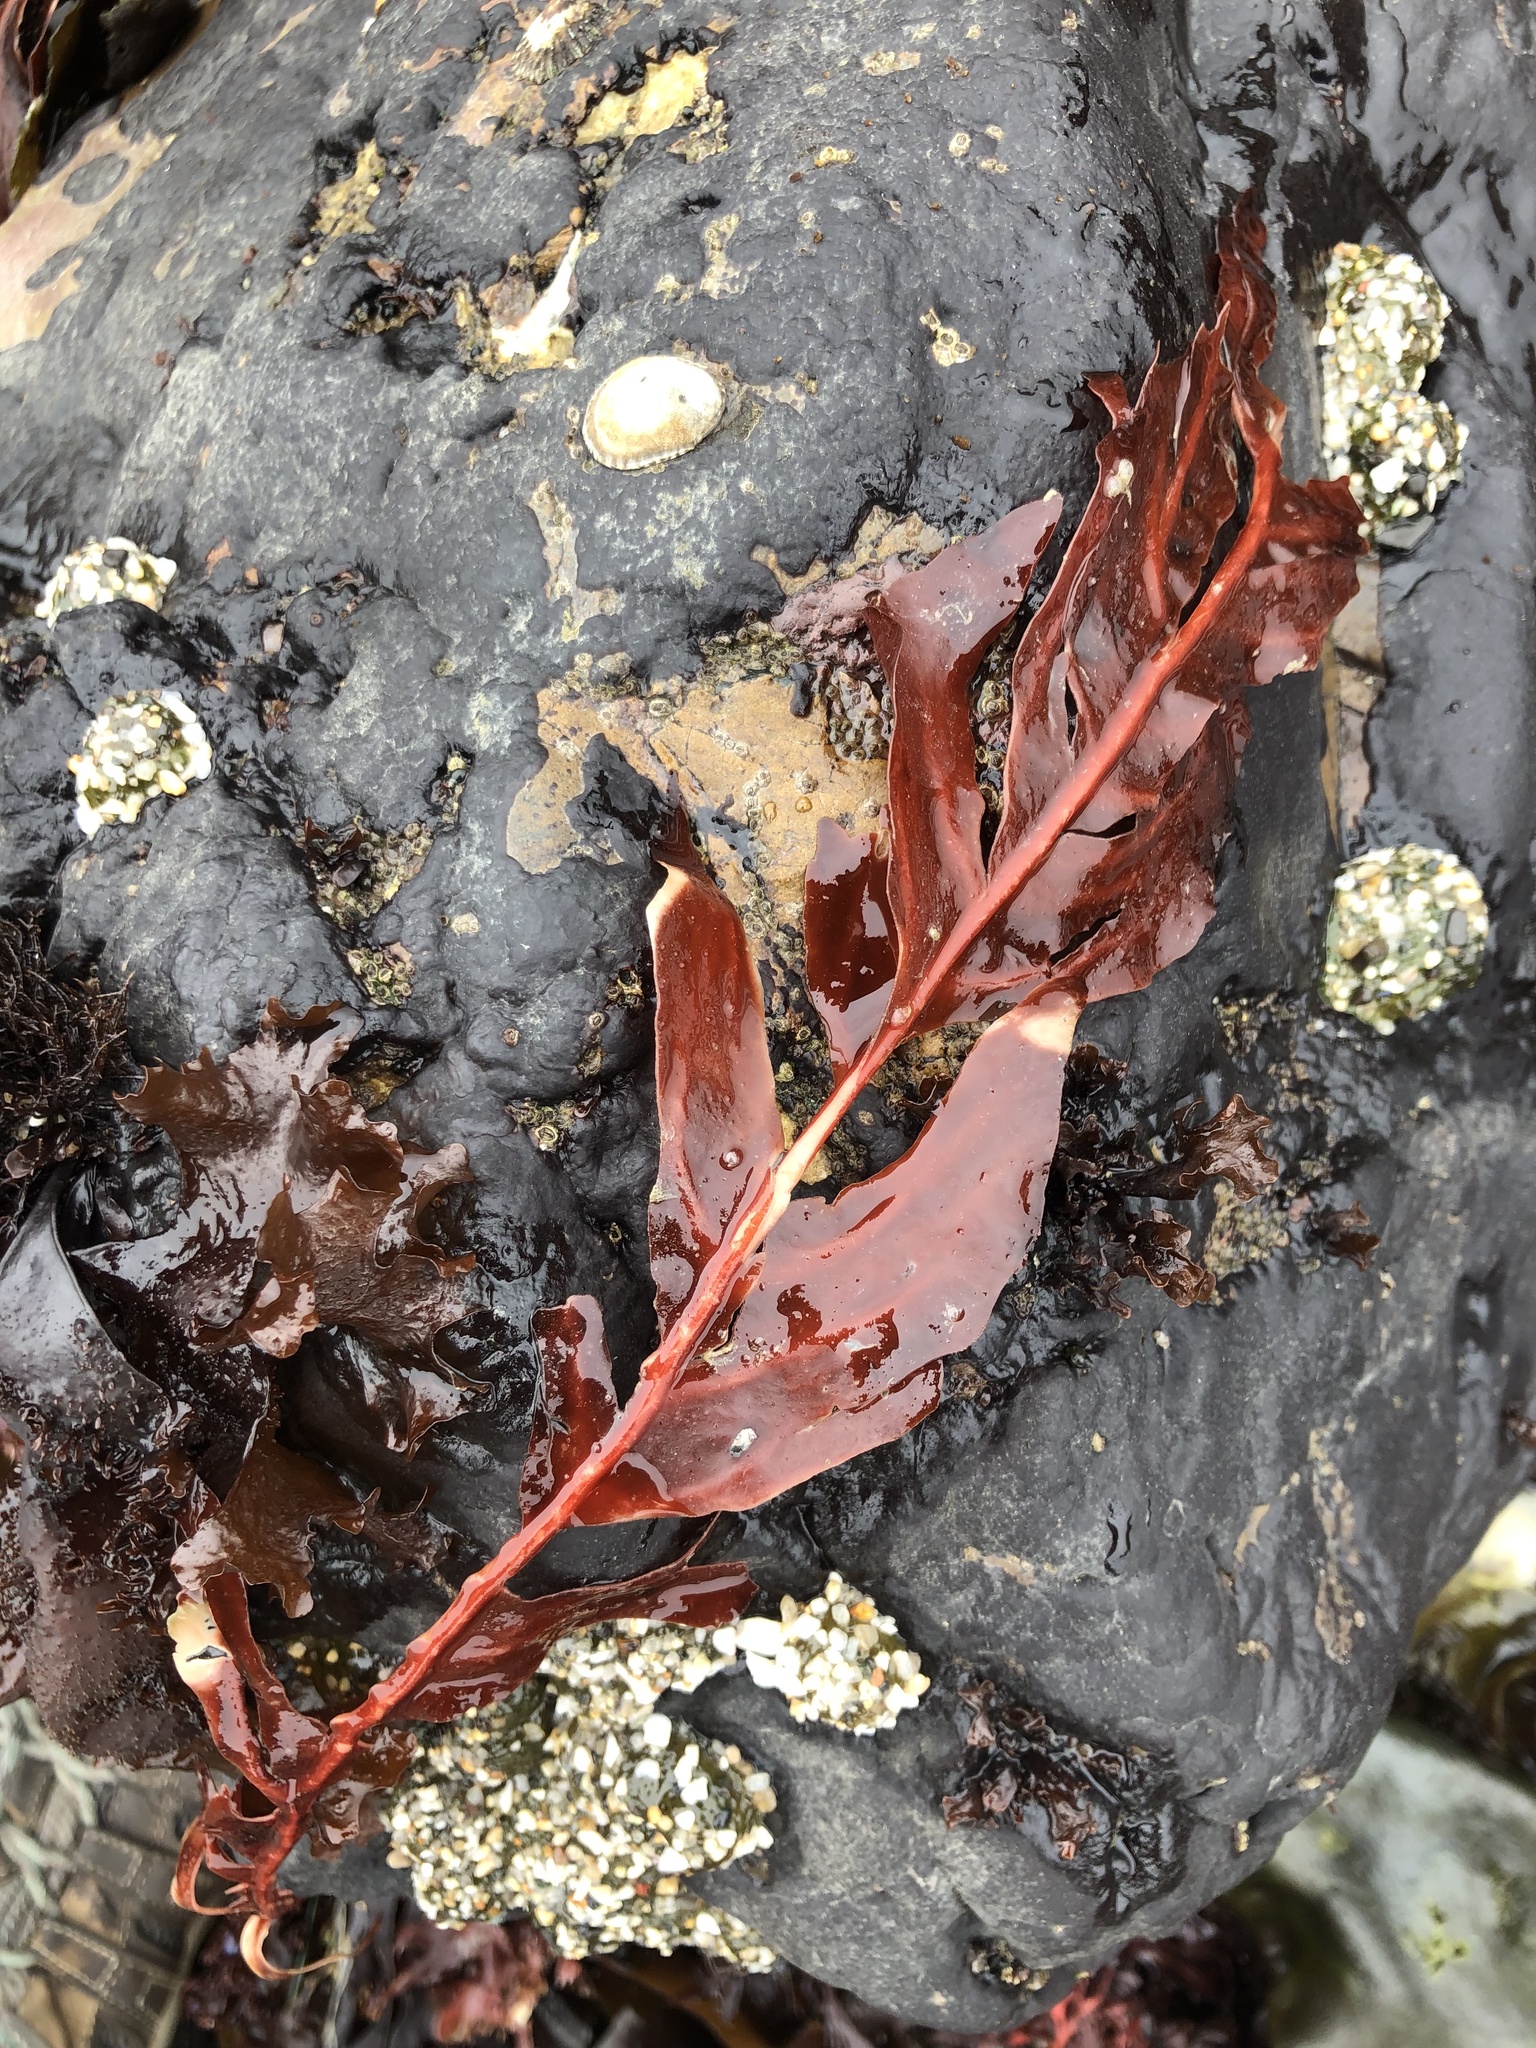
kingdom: Plantae
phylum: Rhodophyta
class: Florideophyceae
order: Gigartinales
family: Kallymeniaceae
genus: Erythrophyllum
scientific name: Erythrophyllum delesserioides
